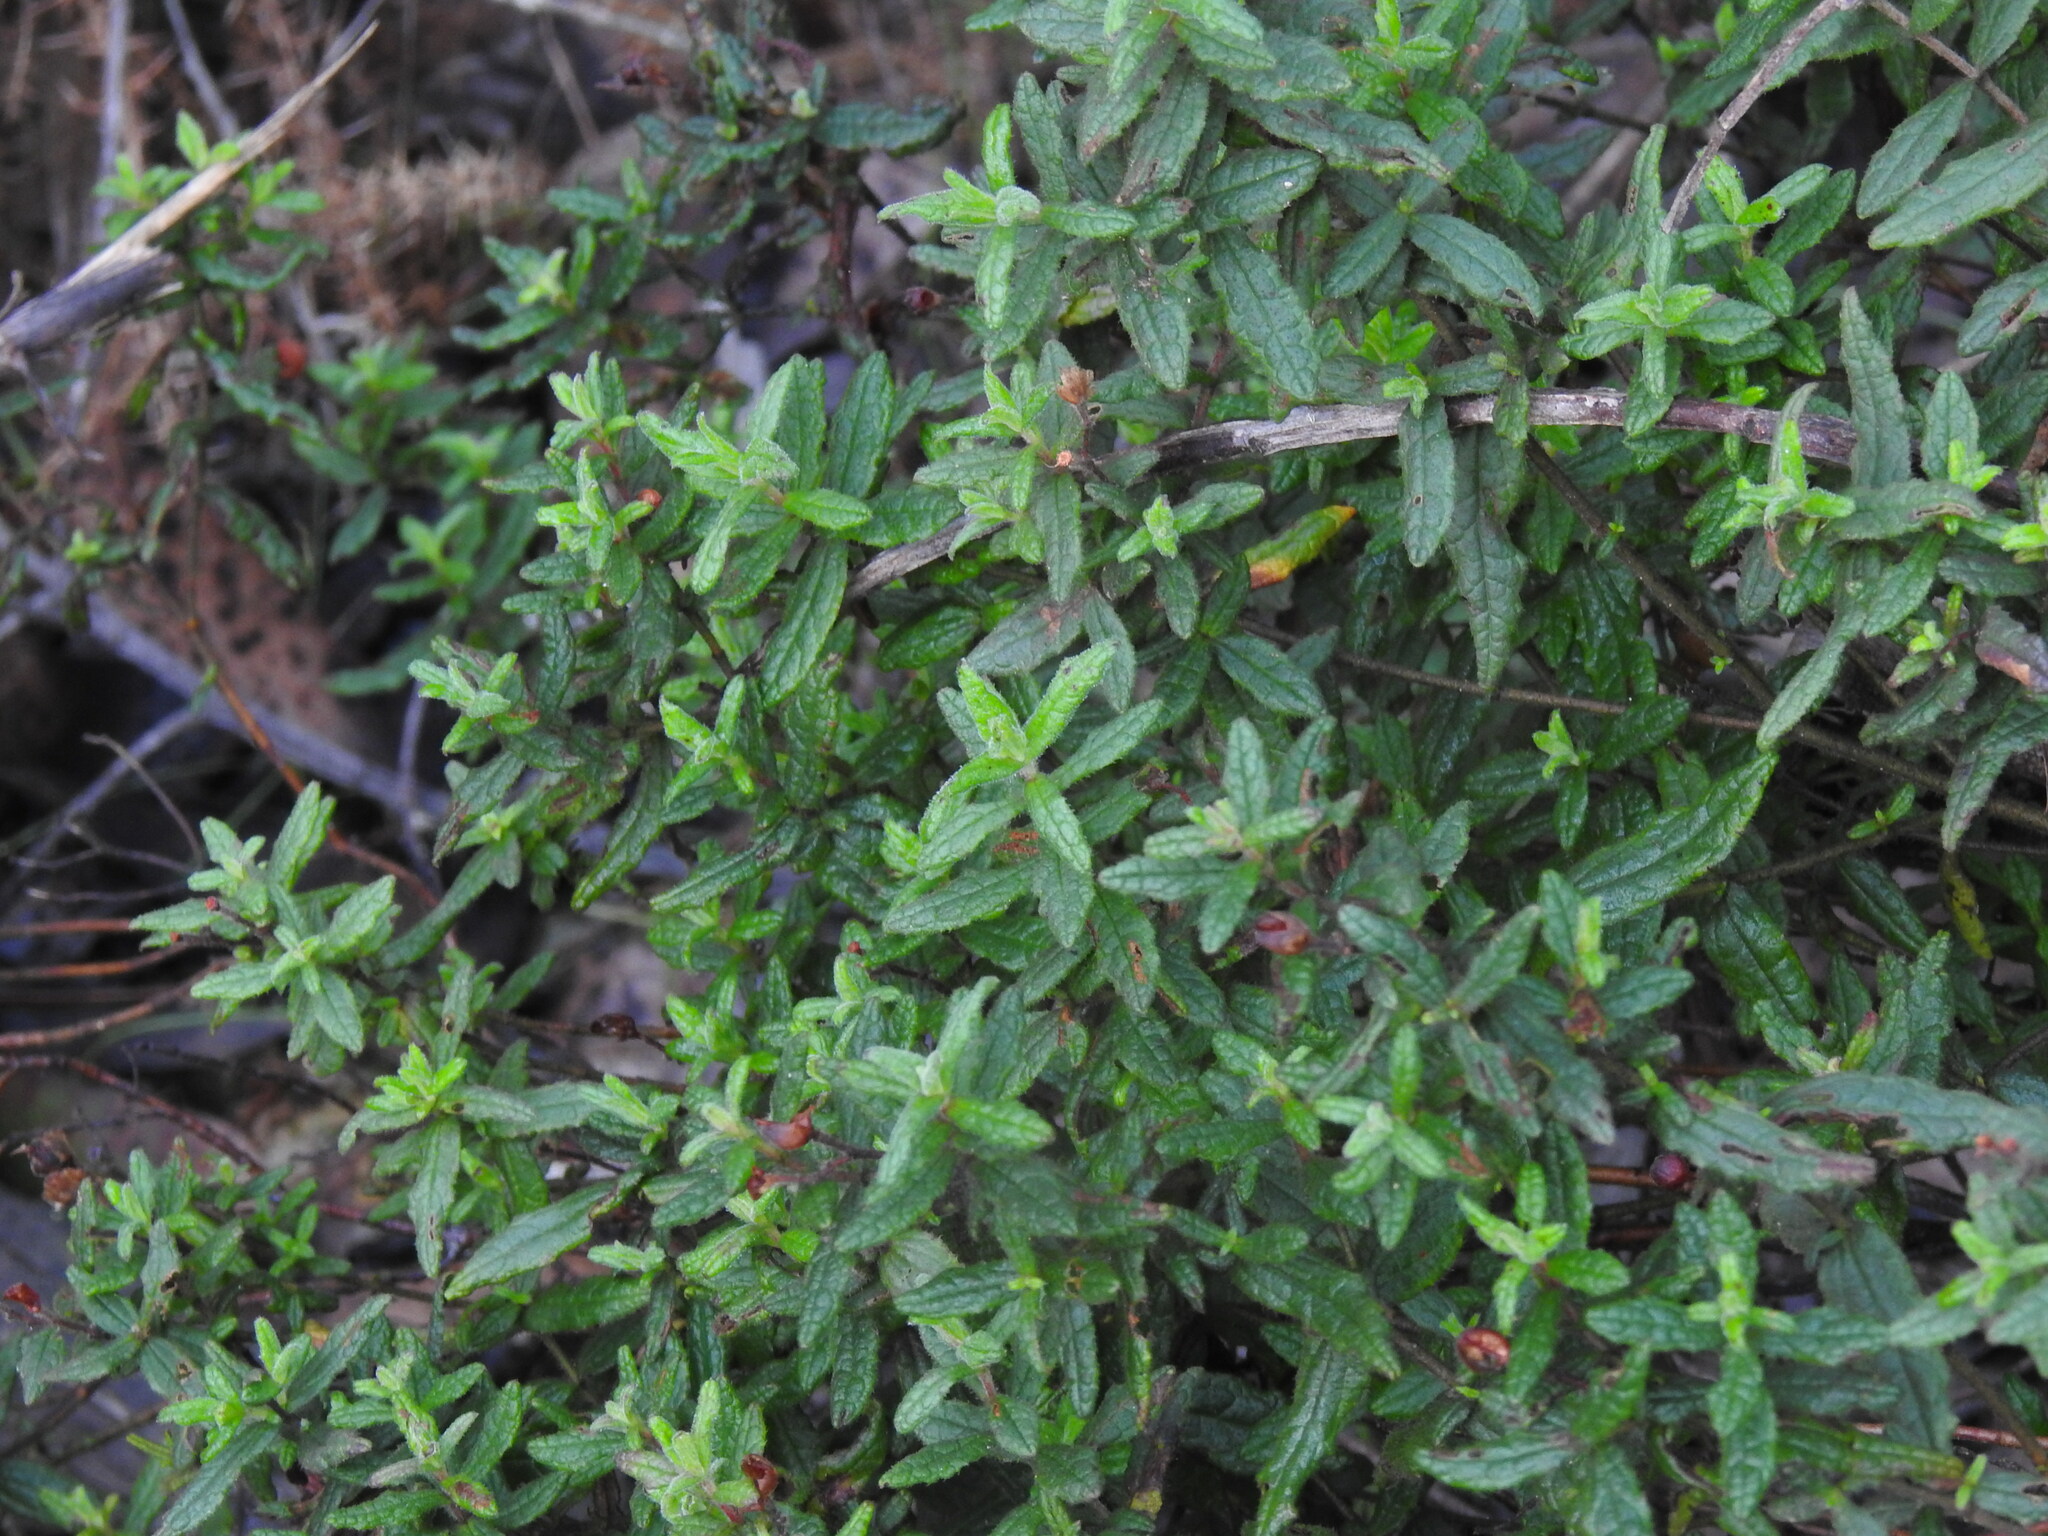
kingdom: Plantae
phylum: Tracheophyta
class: Magnoliopsida
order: Malvales
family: Cistaceae
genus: Cistus
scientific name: Cistus inflatus
